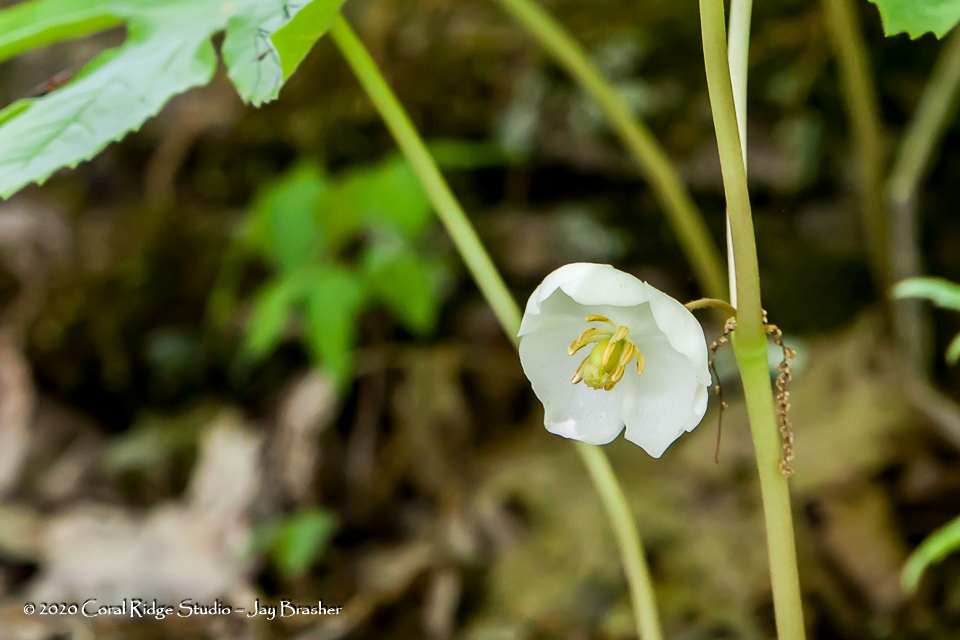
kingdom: Plantae
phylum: Tracheophyta
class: Magnoliopsida
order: Ranunculales
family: Berberidaceae
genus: Podophyllum
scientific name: Podophyllum peltatum
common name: Wild mandrake
